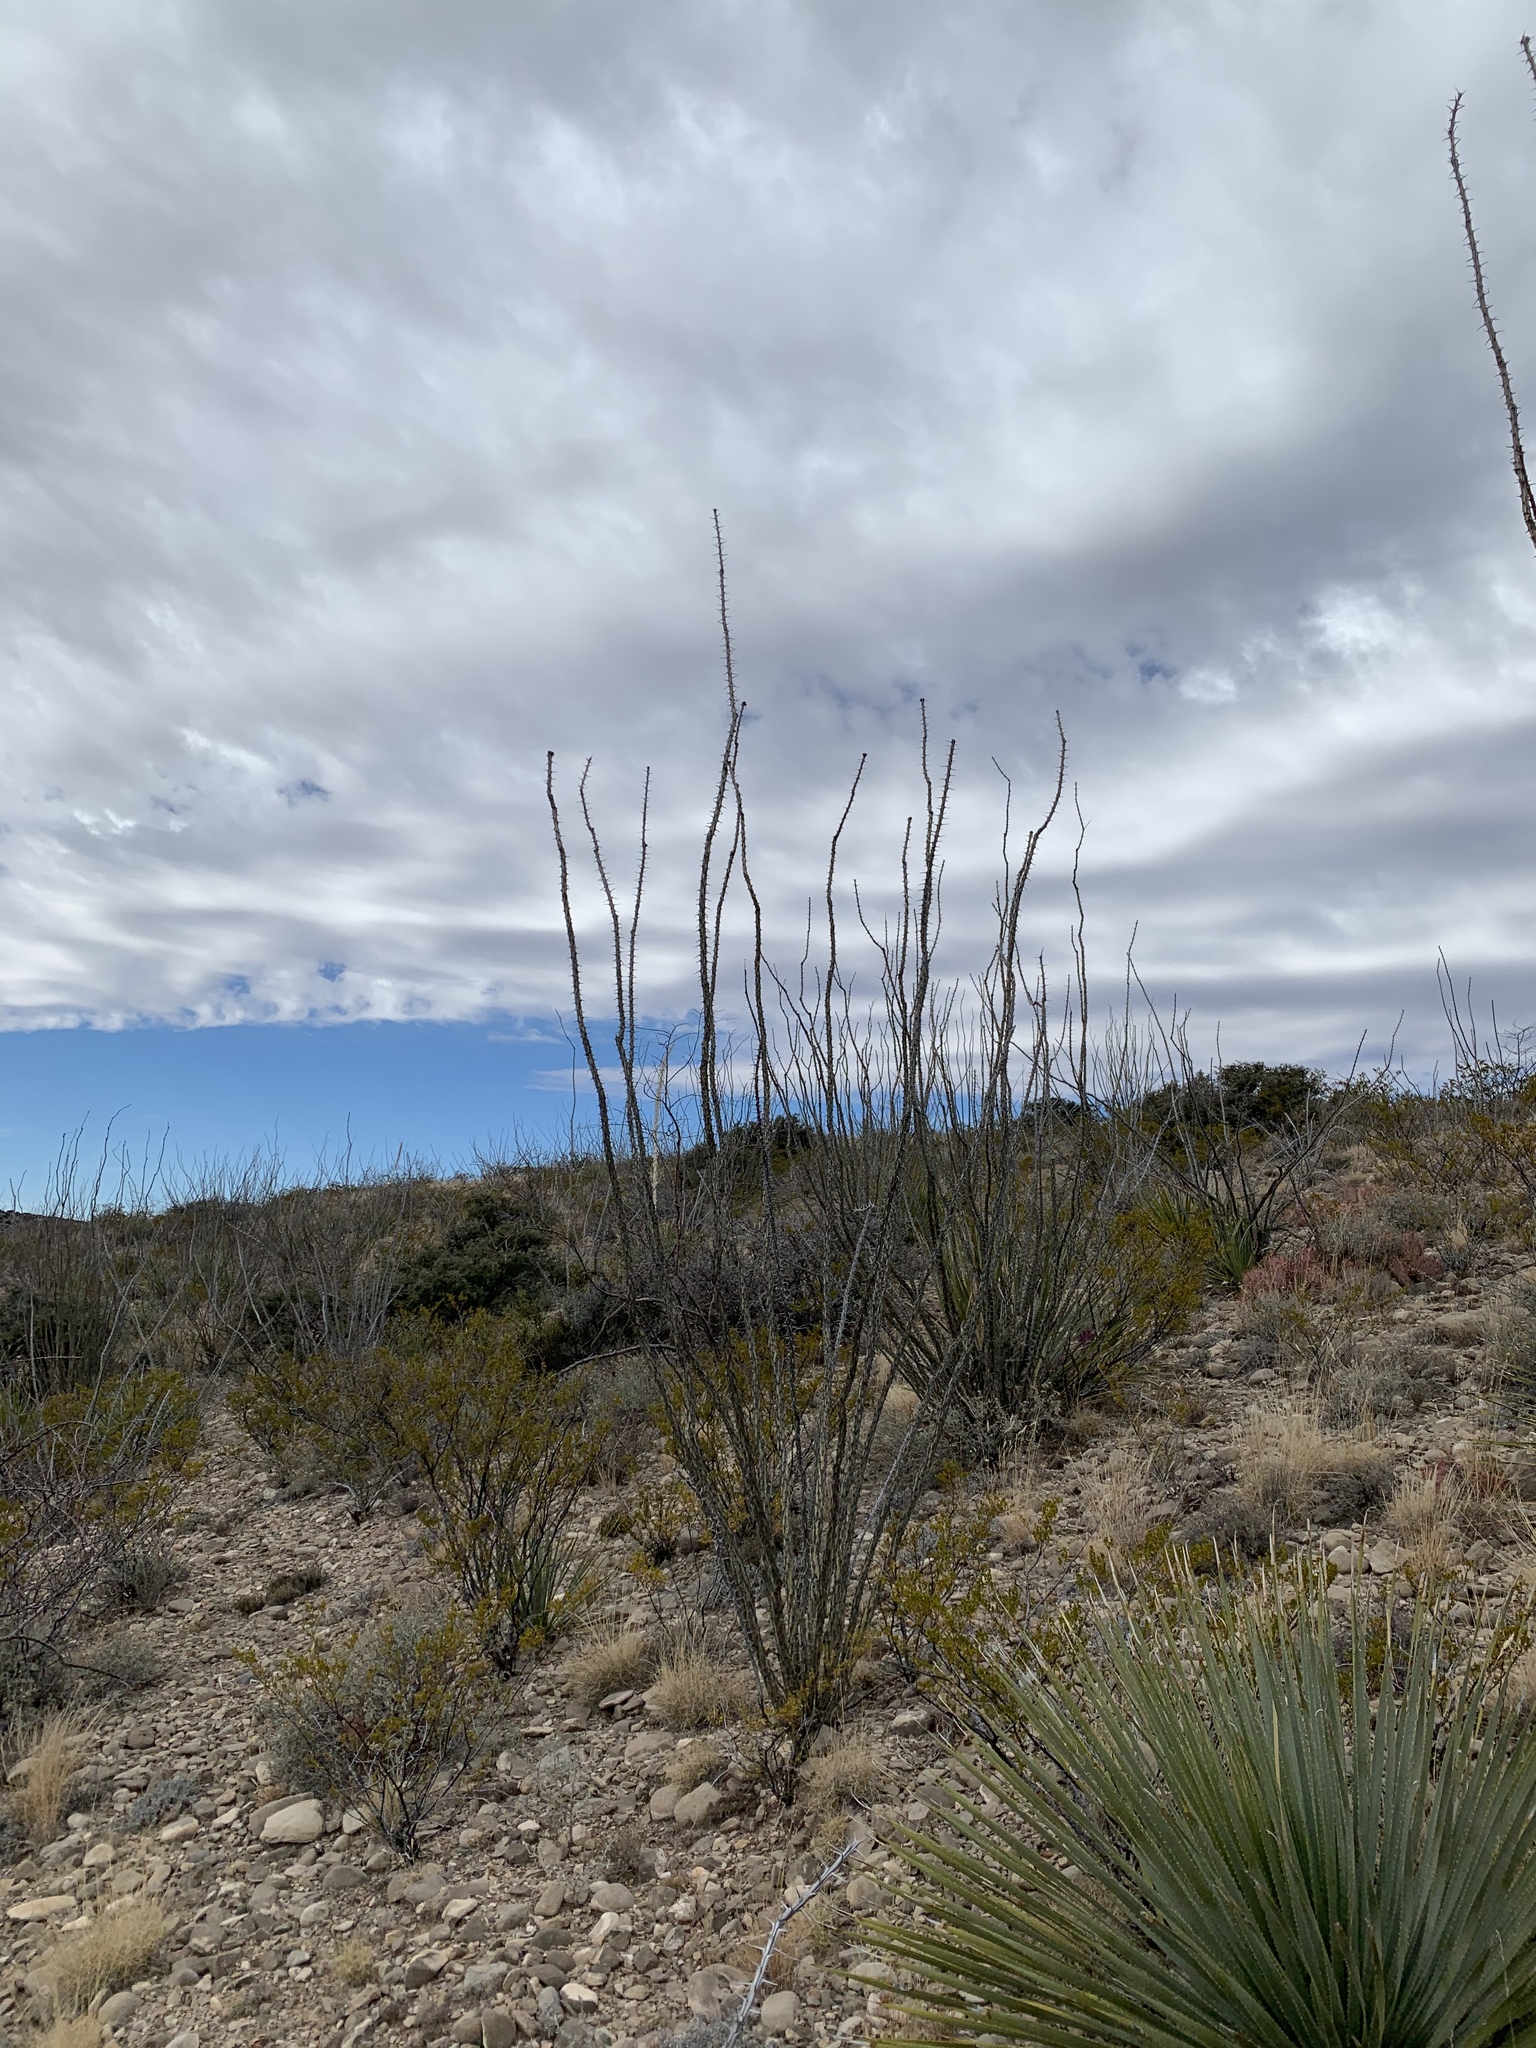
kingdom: Plantae
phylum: Tracheophyta
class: Magnoliopsida
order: Ericales
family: Fouquieriaceae
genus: Fouquieria
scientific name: Fouquieria splendens
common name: Vine-cactus
